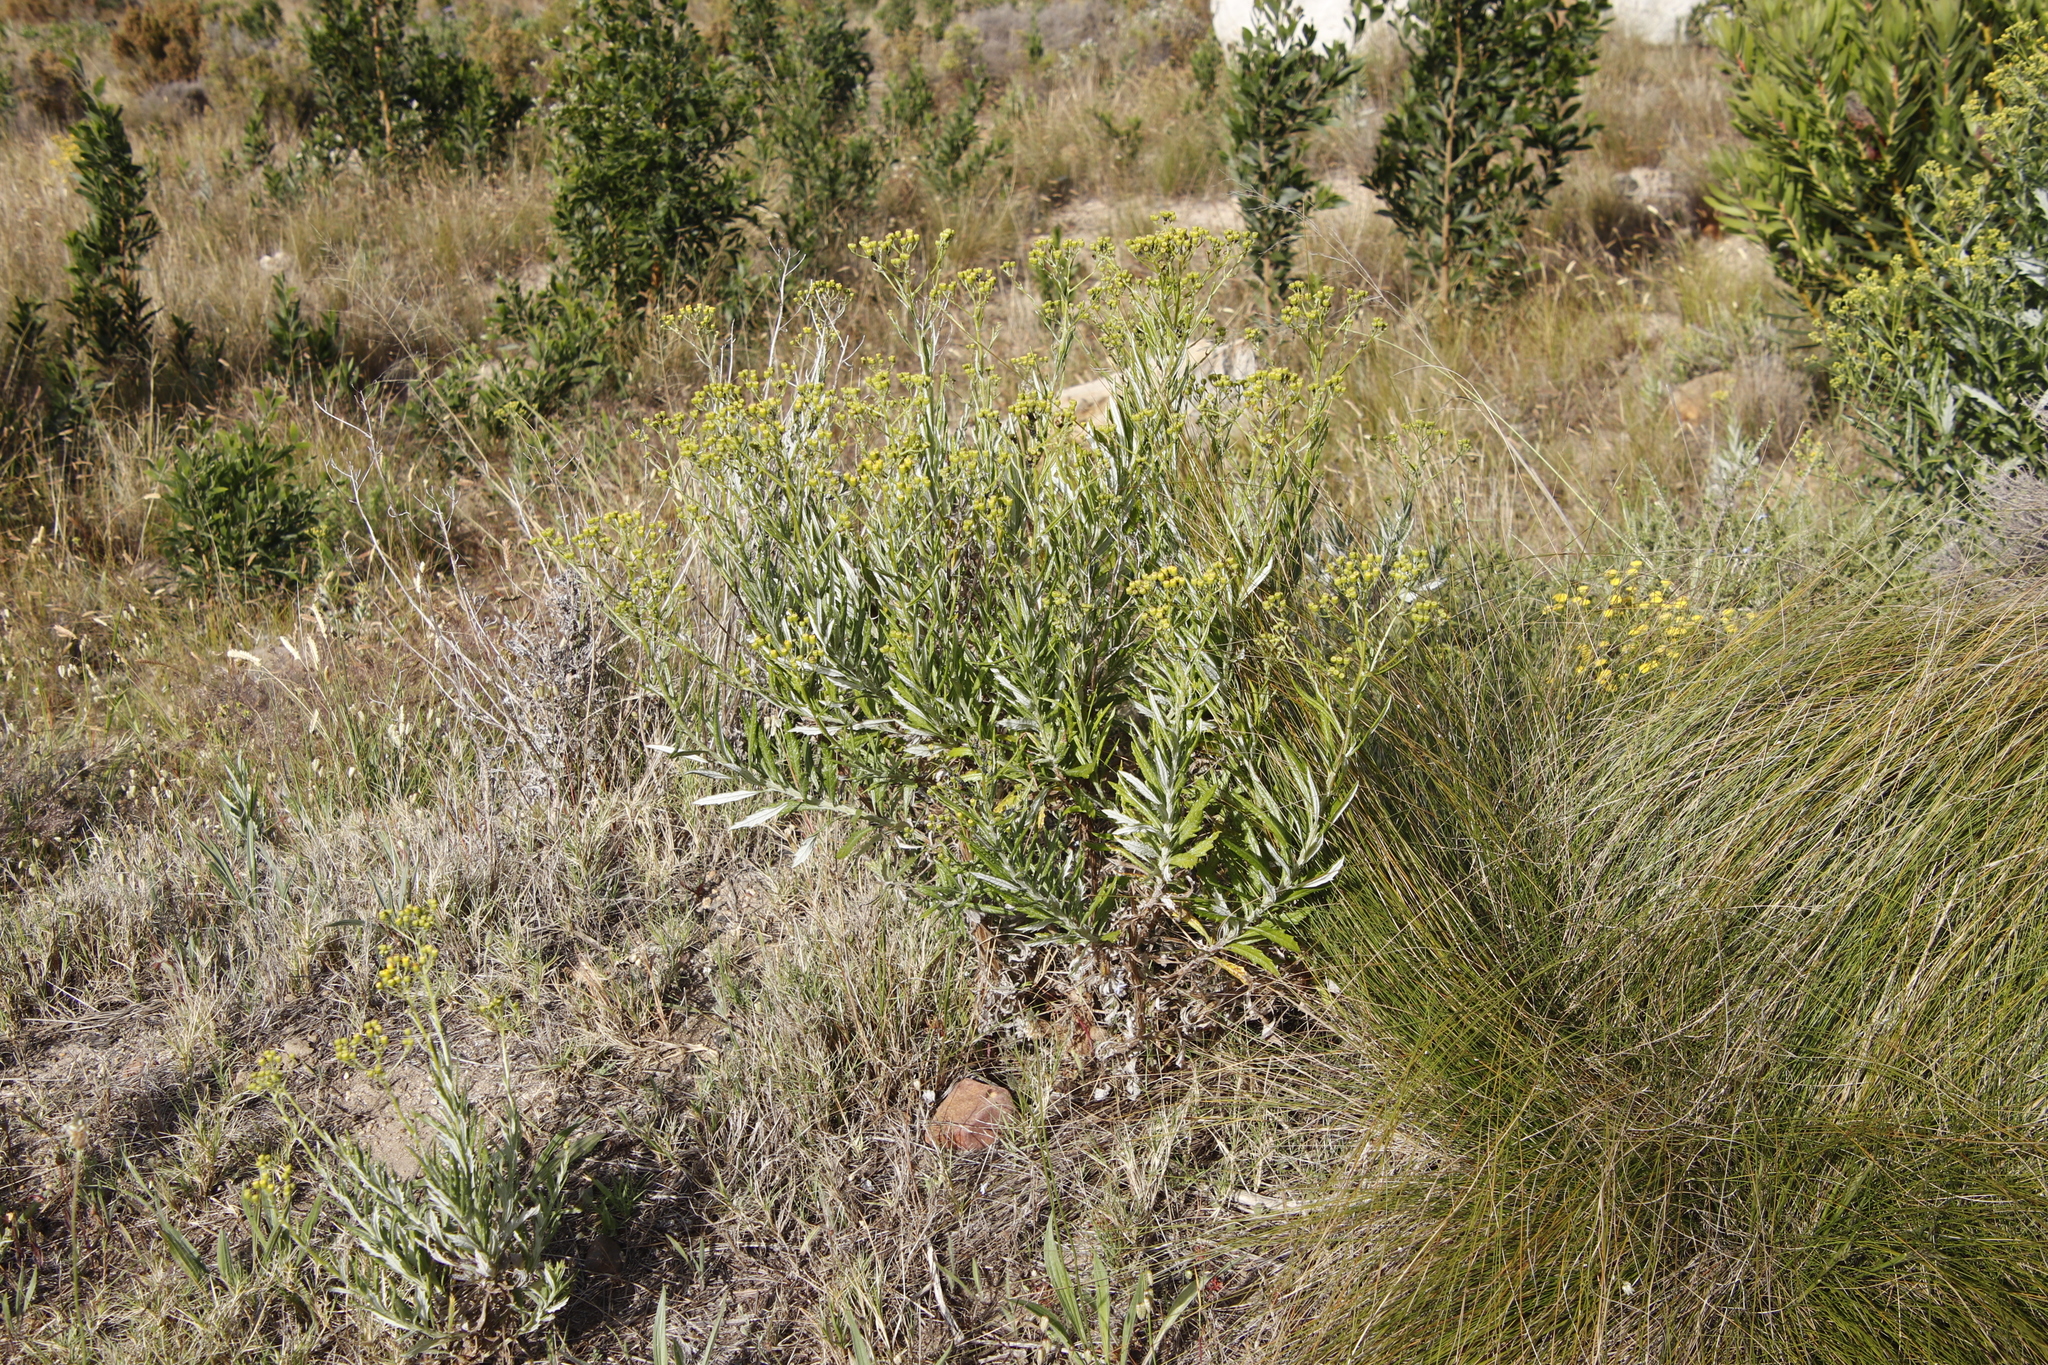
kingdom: Plantae
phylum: Tracheophyta
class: Magnoliopsida
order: Asterales
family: Asteraceae
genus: Senecio
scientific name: Senecio pterophorus
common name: Shoddy ragwort
